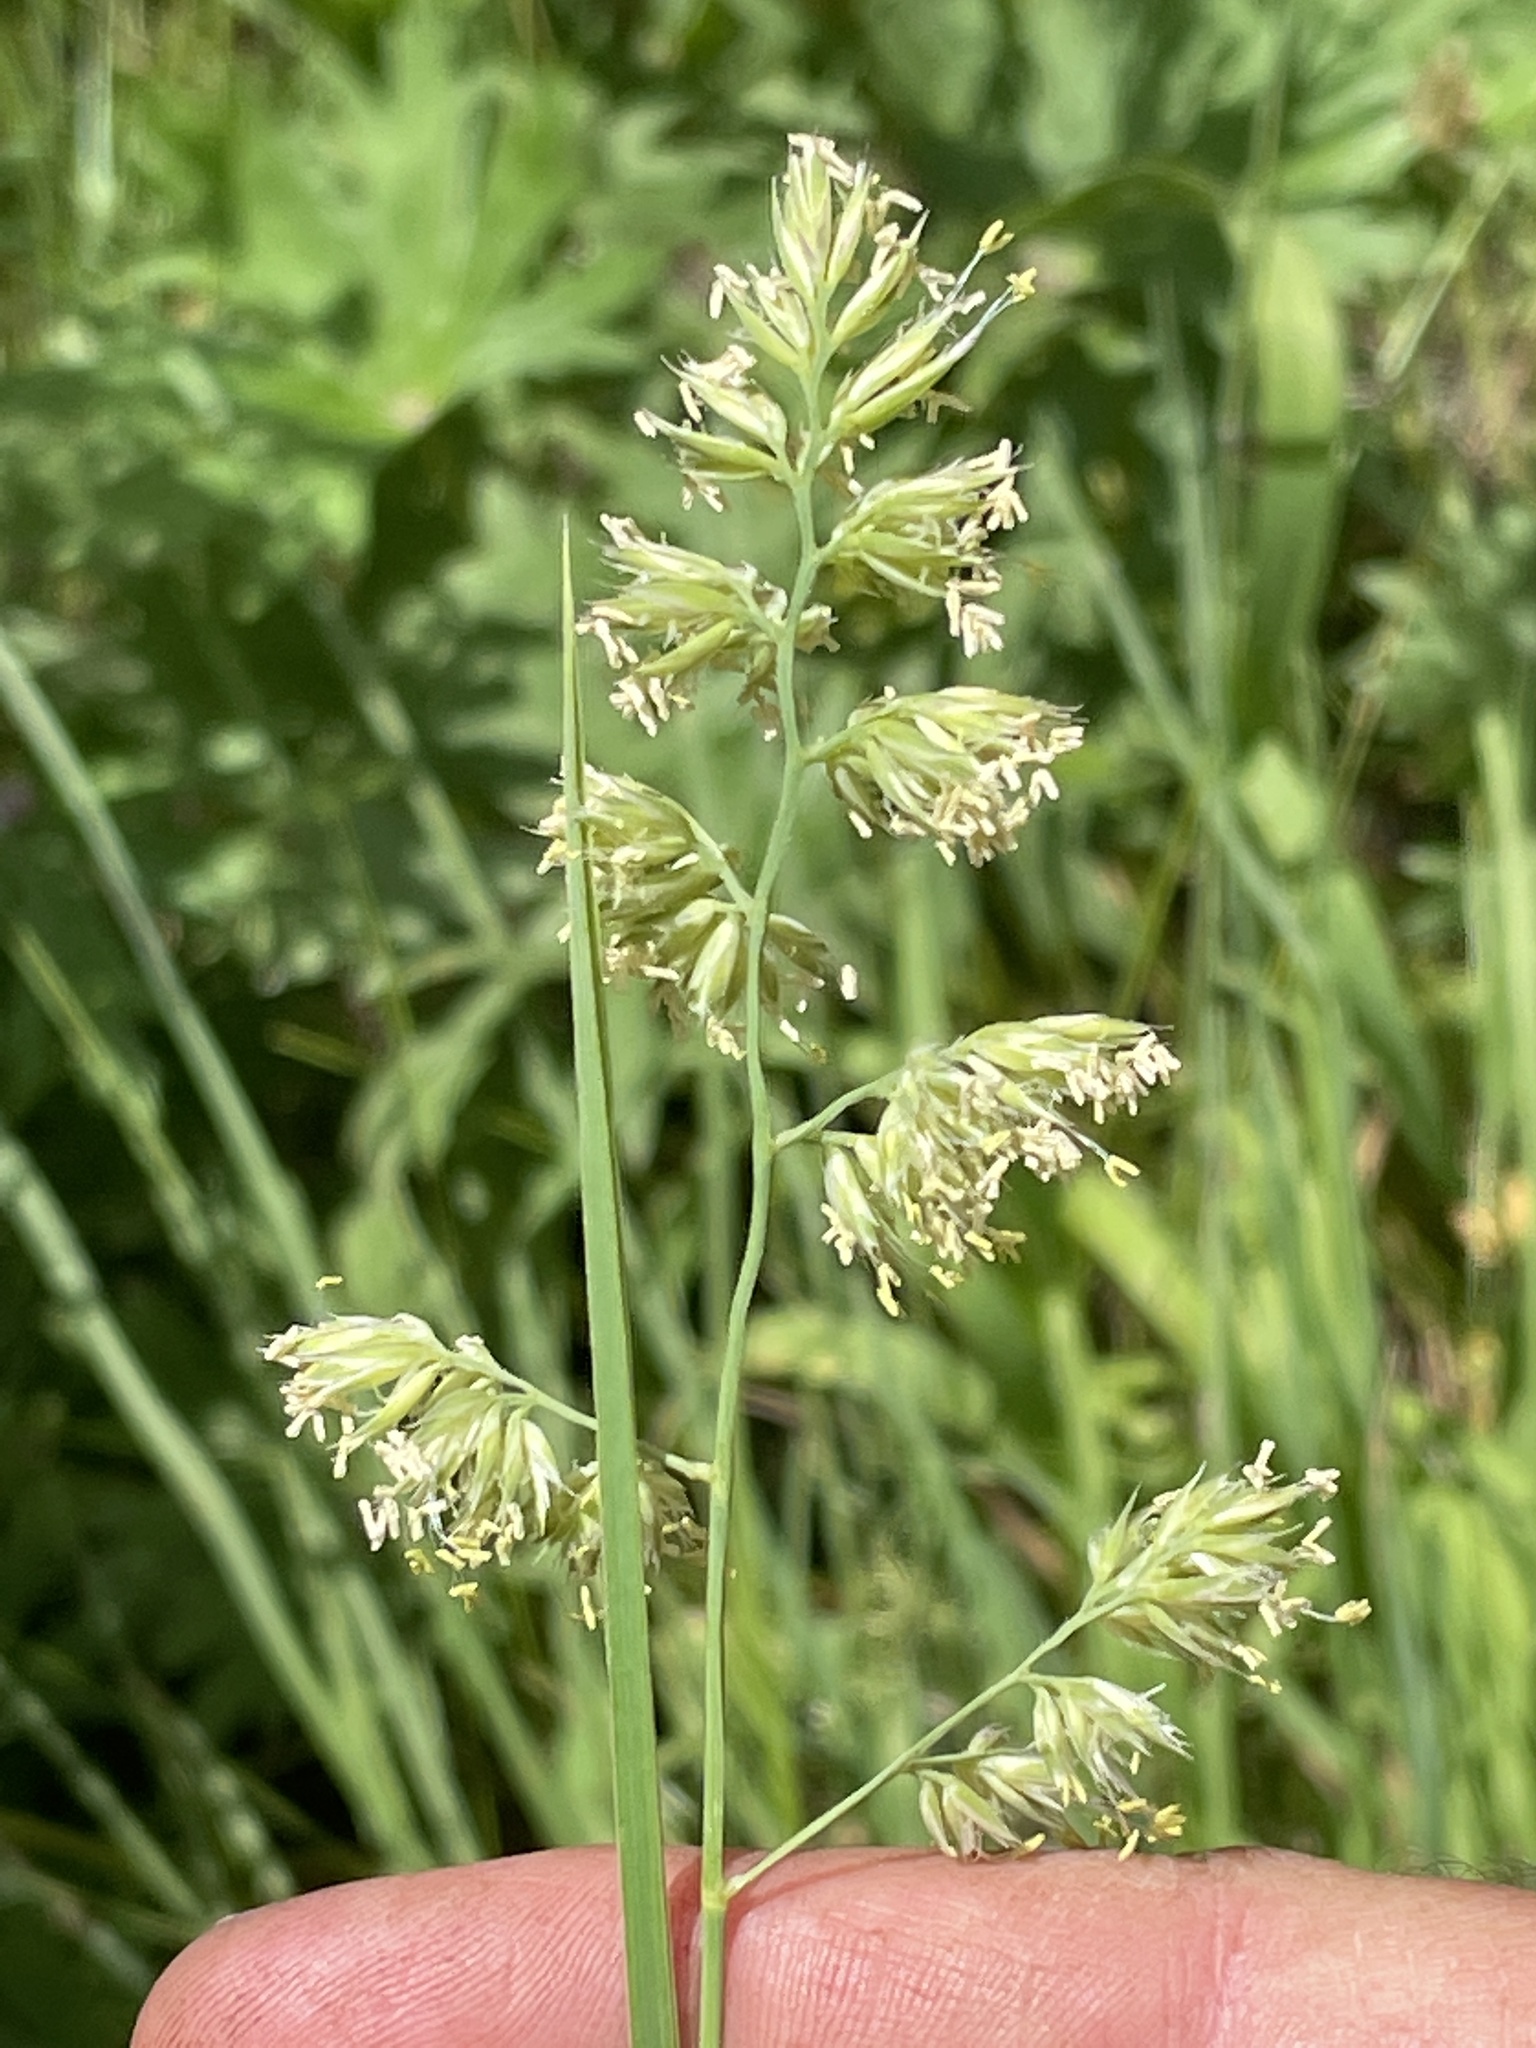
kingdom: Plantae
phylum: Tracheophyta
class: Liliopsida
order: Poales
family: Poaceae
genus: Dactylis
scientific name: Dactylis glomerata
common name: Orchardgrass
